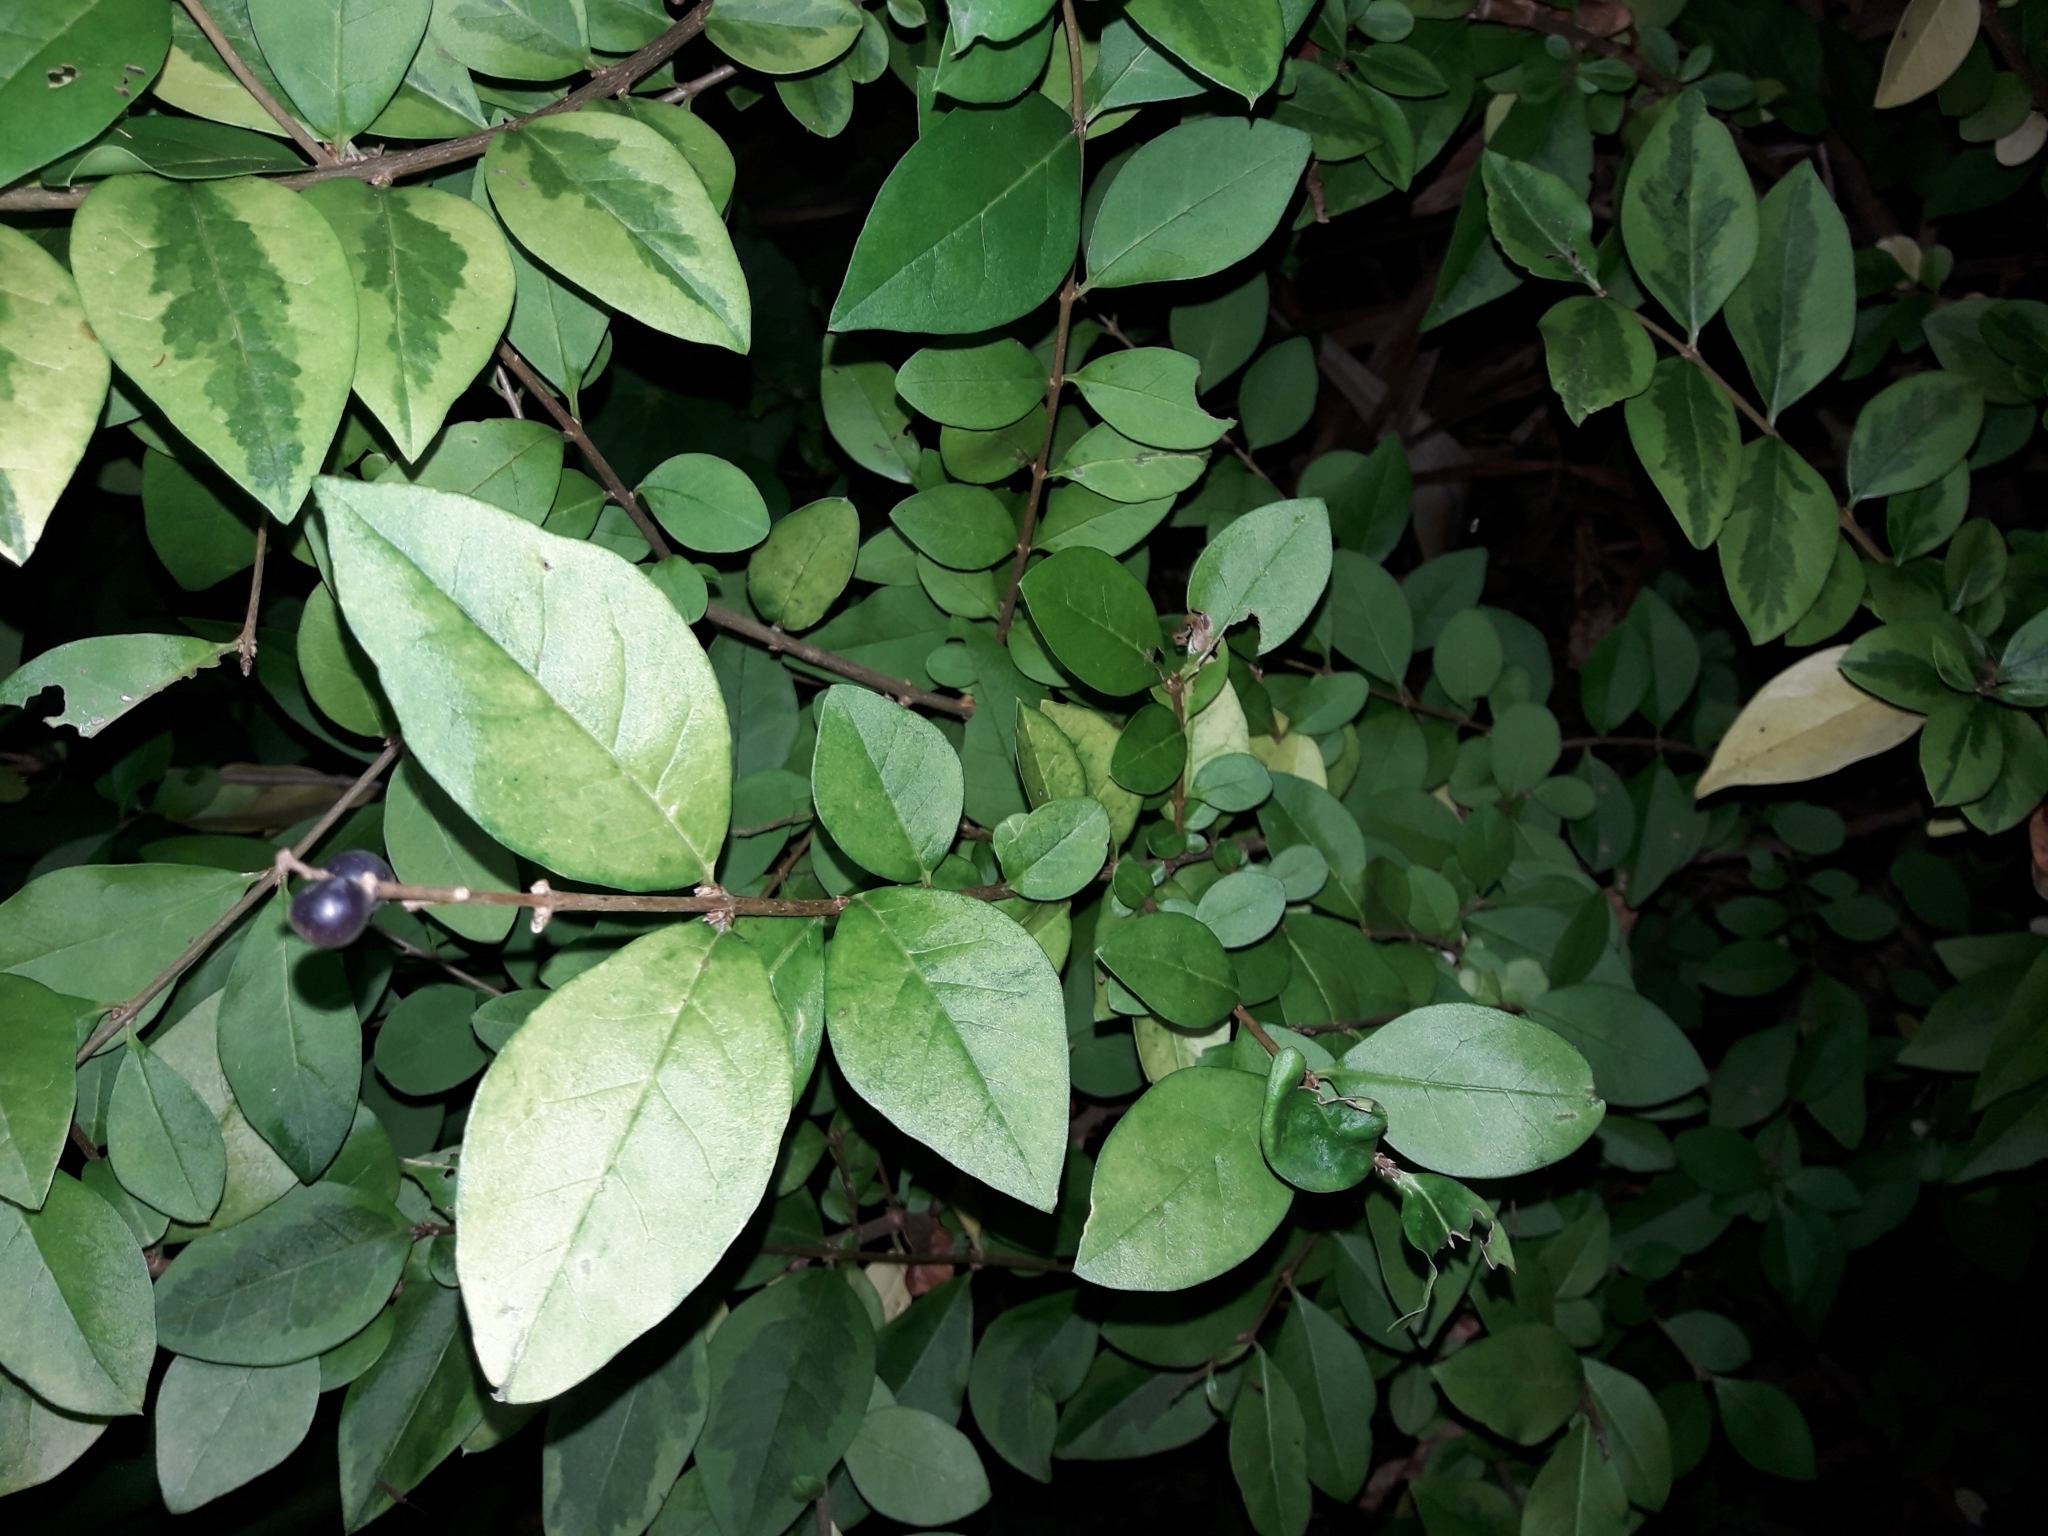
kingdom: Plantae
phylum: Tracheophyta
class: Magnoliopsida
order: Lamiales
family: Oleaceae
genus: Ligustrum
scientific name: Ligustrum ovalifolium
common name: California privet
